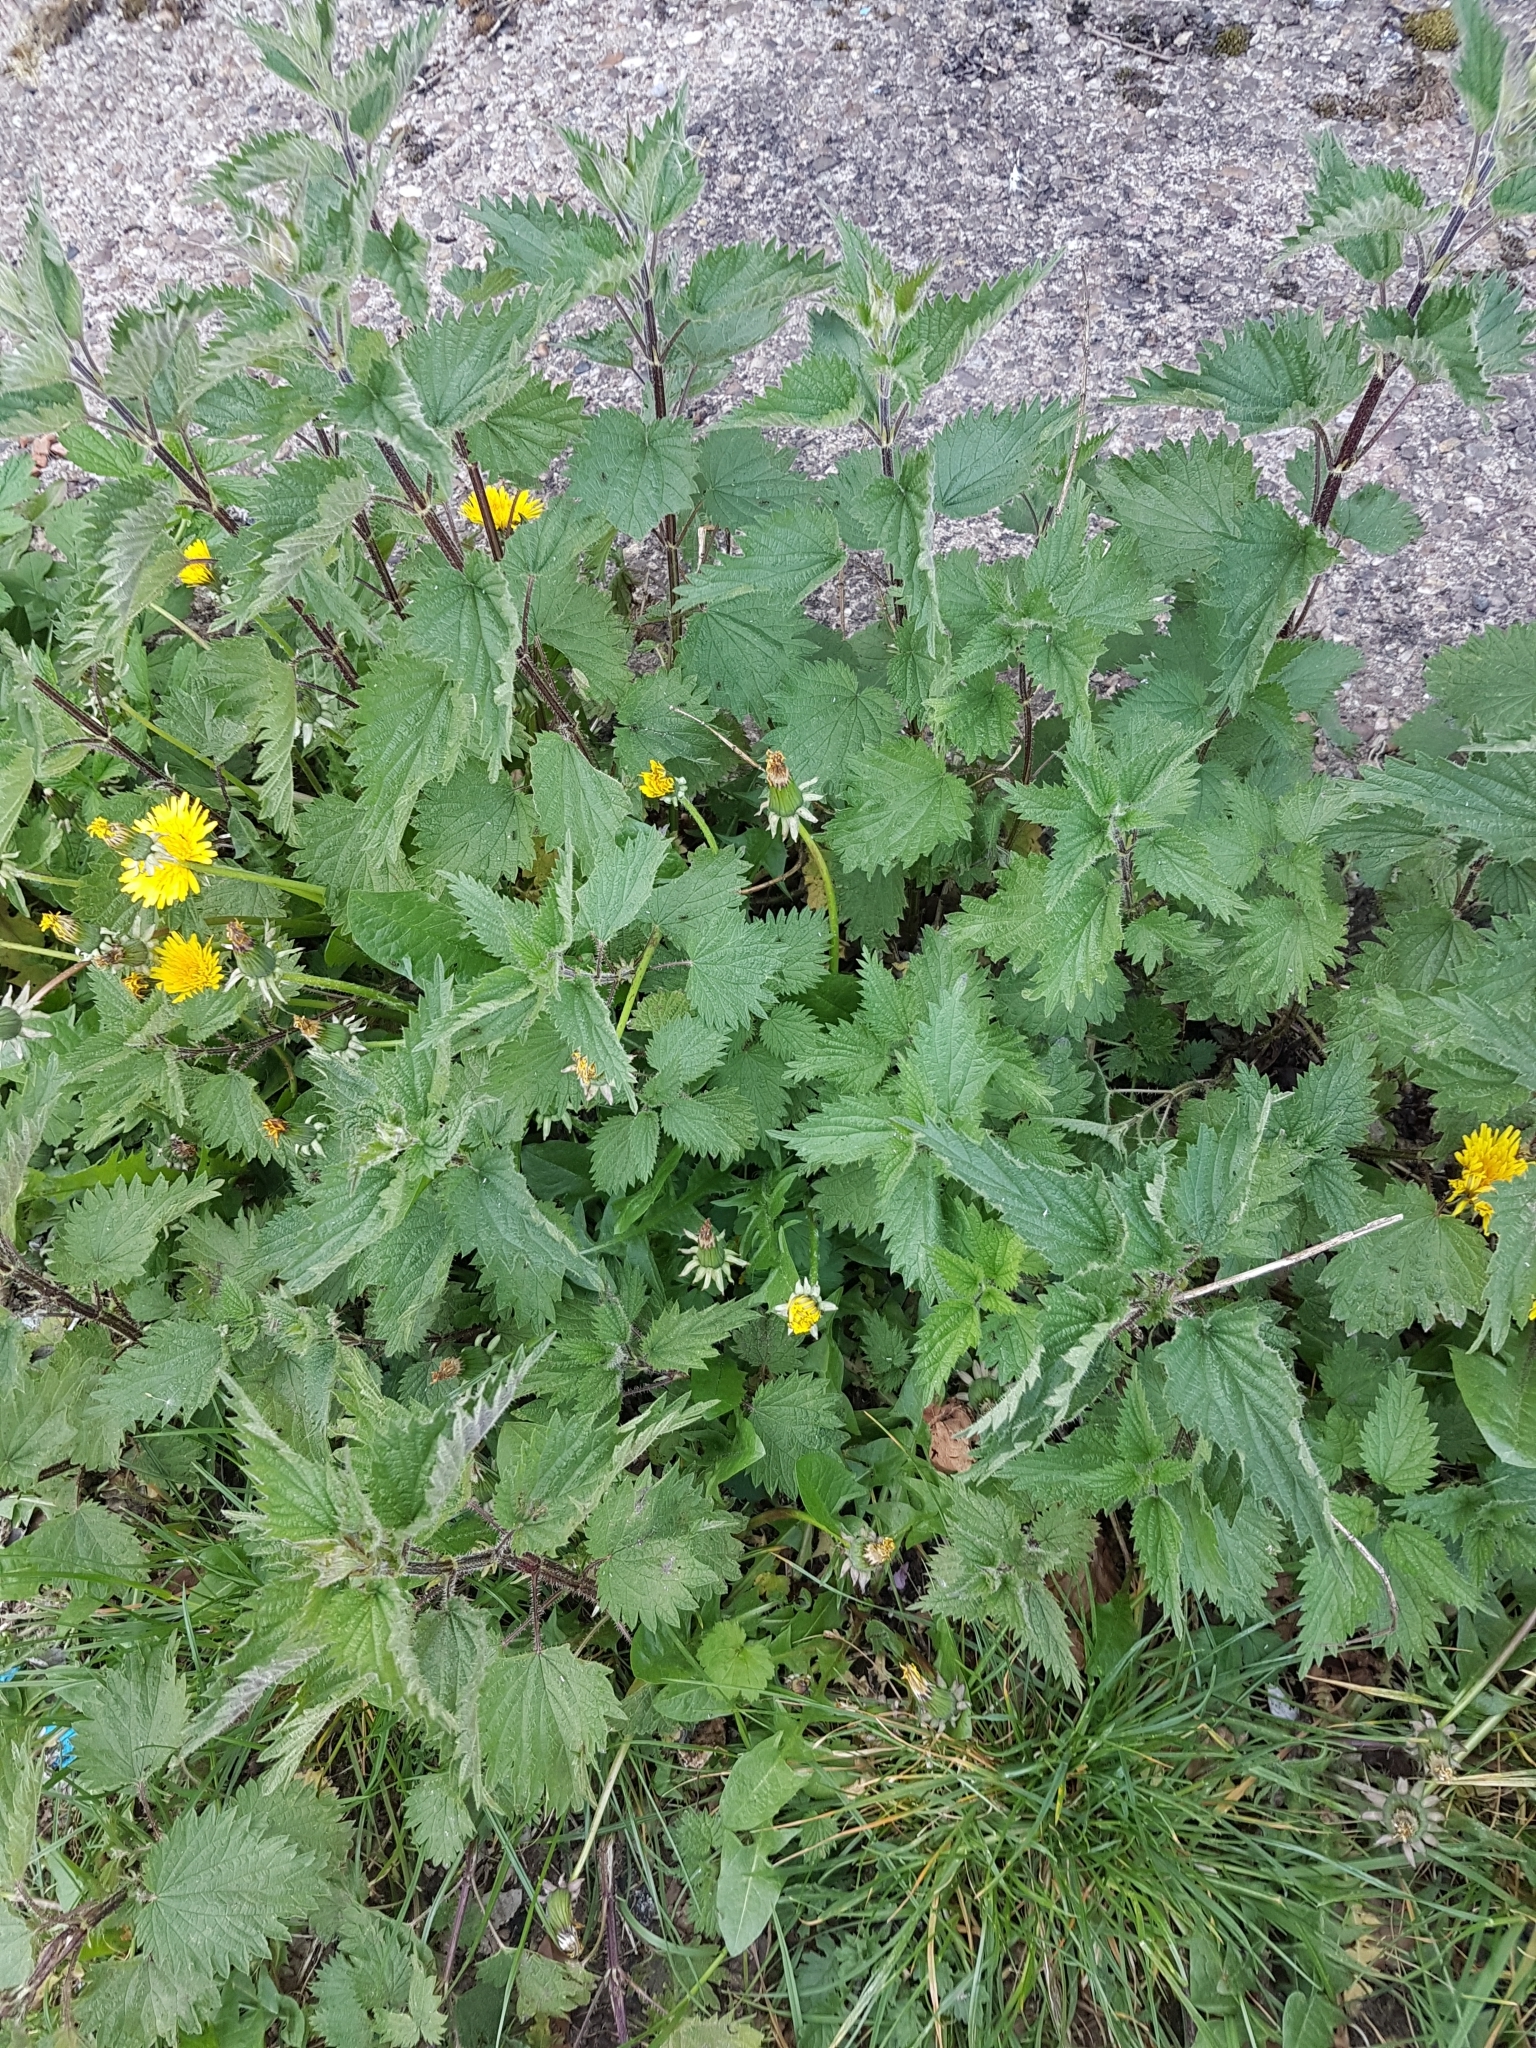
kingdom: Plantae
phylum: Tracheophyta
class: Magnoliopsida
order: Rosales
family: Urticaceae
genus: Urtica
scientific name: Urtica dioica
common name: Common nettle
